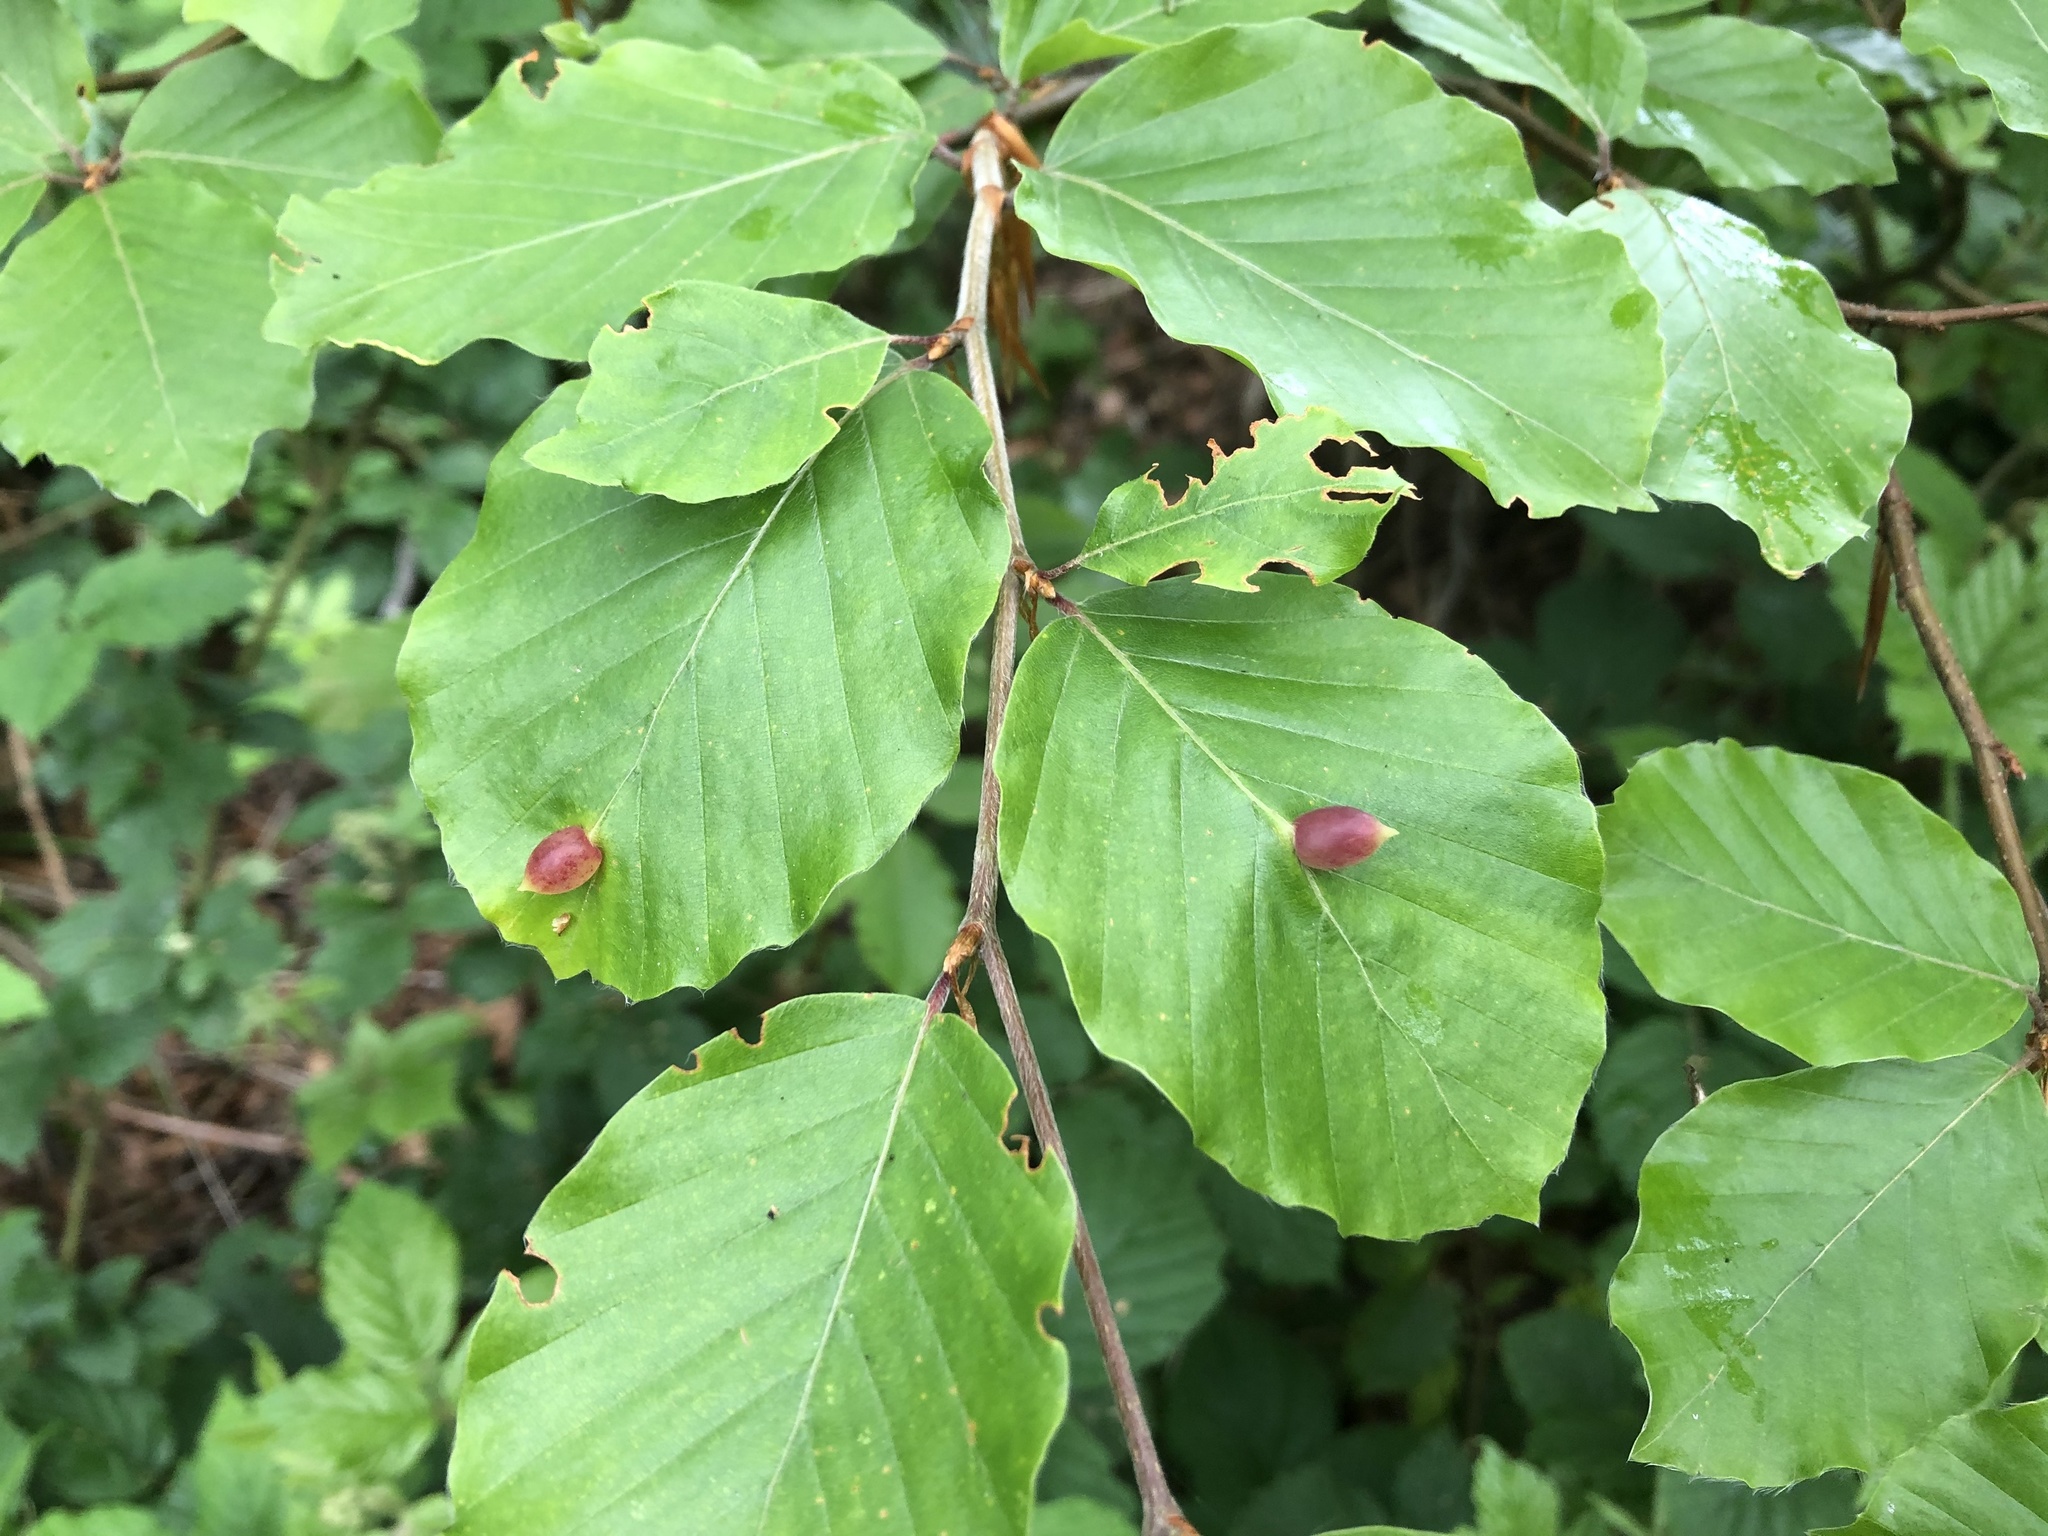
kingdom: Animalia
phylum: Arthropoda
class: Insecta
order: Diptera
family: Cecidomyiidae
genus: Mikiola
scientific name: Mikiola fagi
